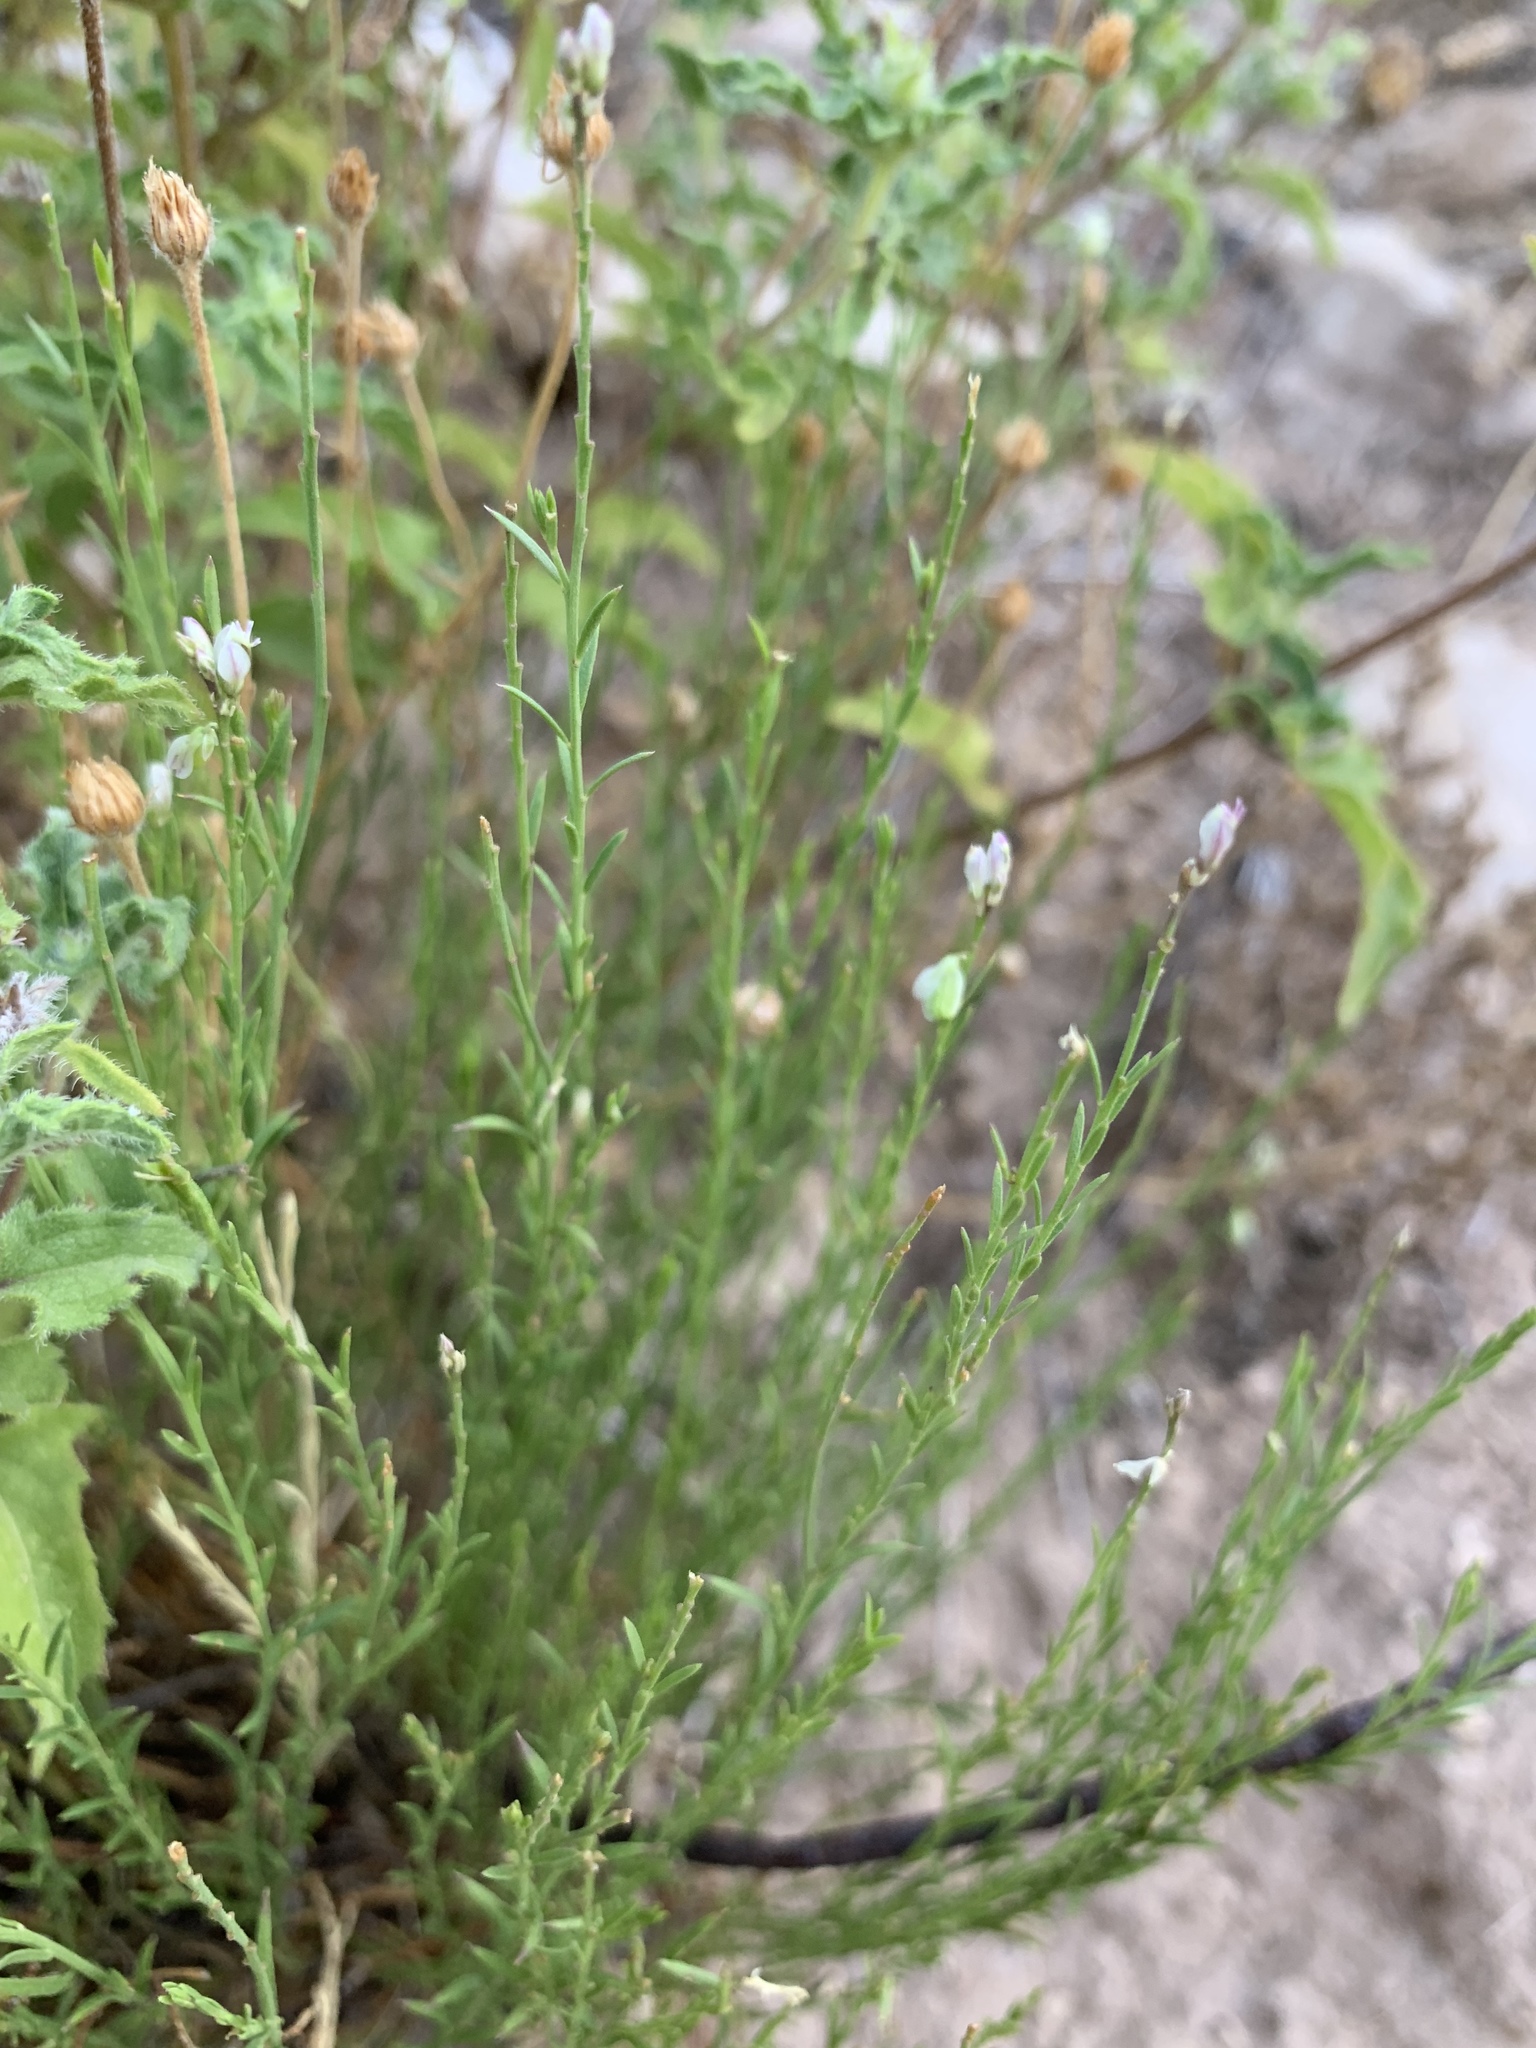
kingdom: Plantae
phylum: Tracheophyta
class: Magnoliopsida
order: Fabales
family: Polygalaceae
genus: Polygala
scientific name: Polygala scoparioides
